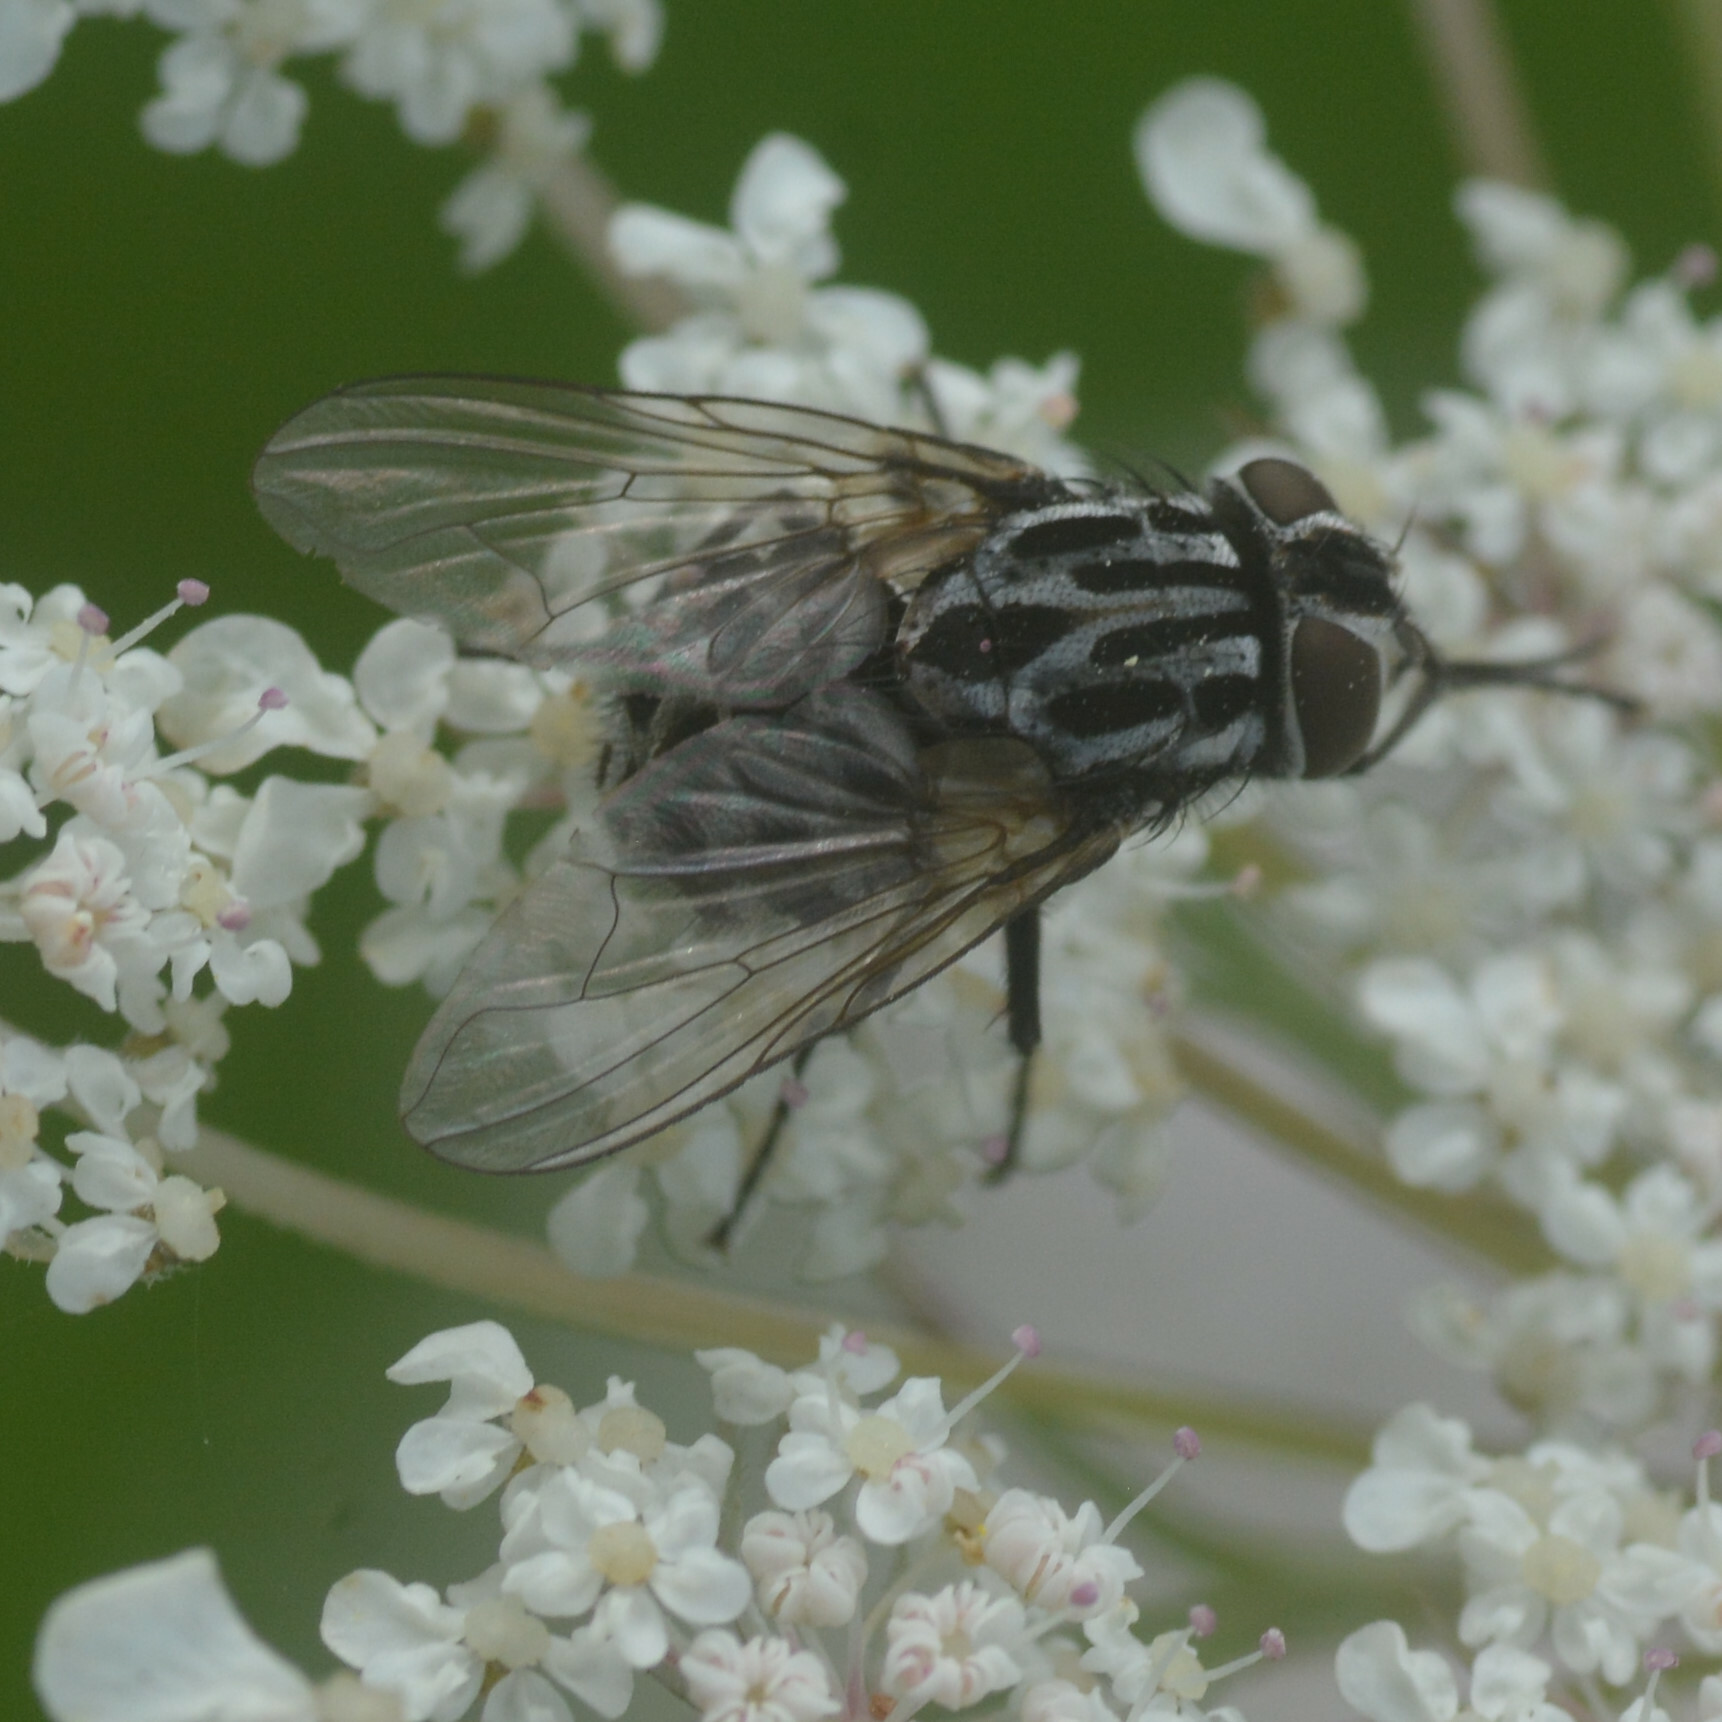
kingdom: Animalia
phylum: Arthropoda
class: Insecta
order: Diptera
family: Muscidae
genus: Graphomya
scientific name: Graphomya maculata
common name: Muscid fly
